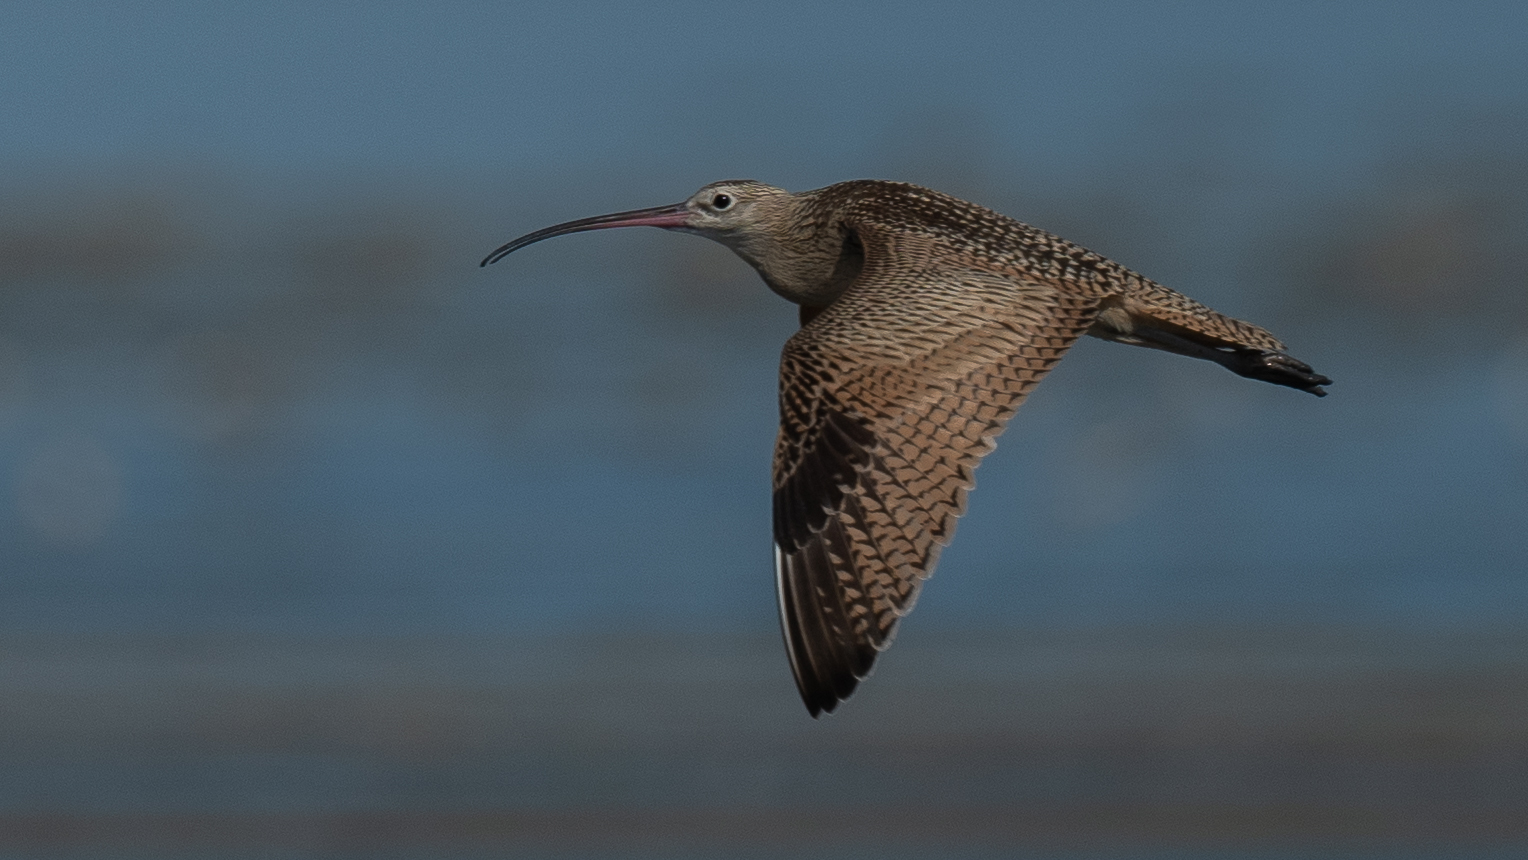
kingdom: Animalia
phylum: Chordata
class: Aves
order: Charadriiformes
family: Scolopacidae
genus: Numenius
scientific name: Numenius americanus
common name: Long-billed curlew
